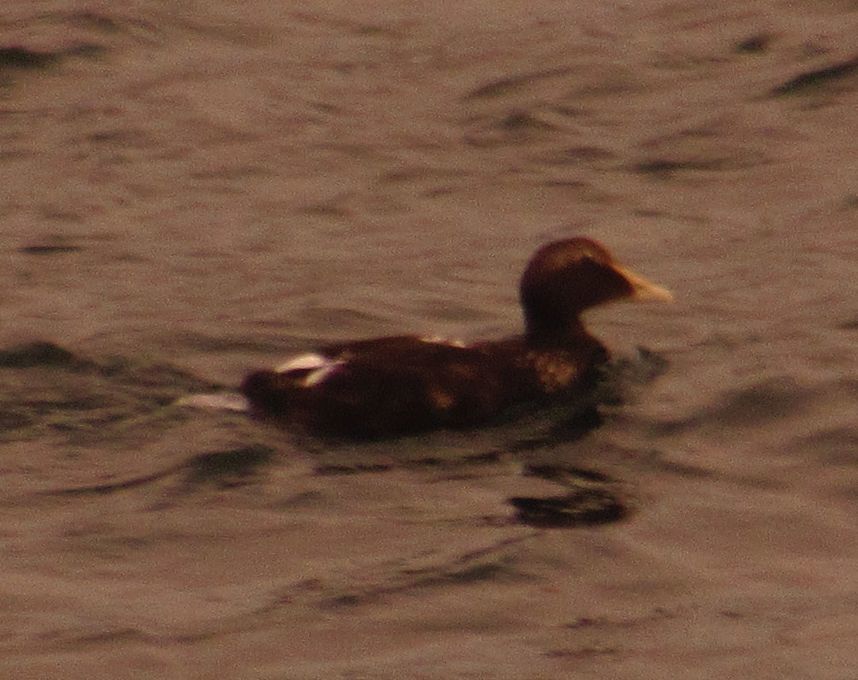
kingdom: Animalia
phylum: Chordata
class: Aves
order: Anseriformes
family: Anatidae
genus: Somateria
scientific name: Somateria mollissima
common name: Common eider
